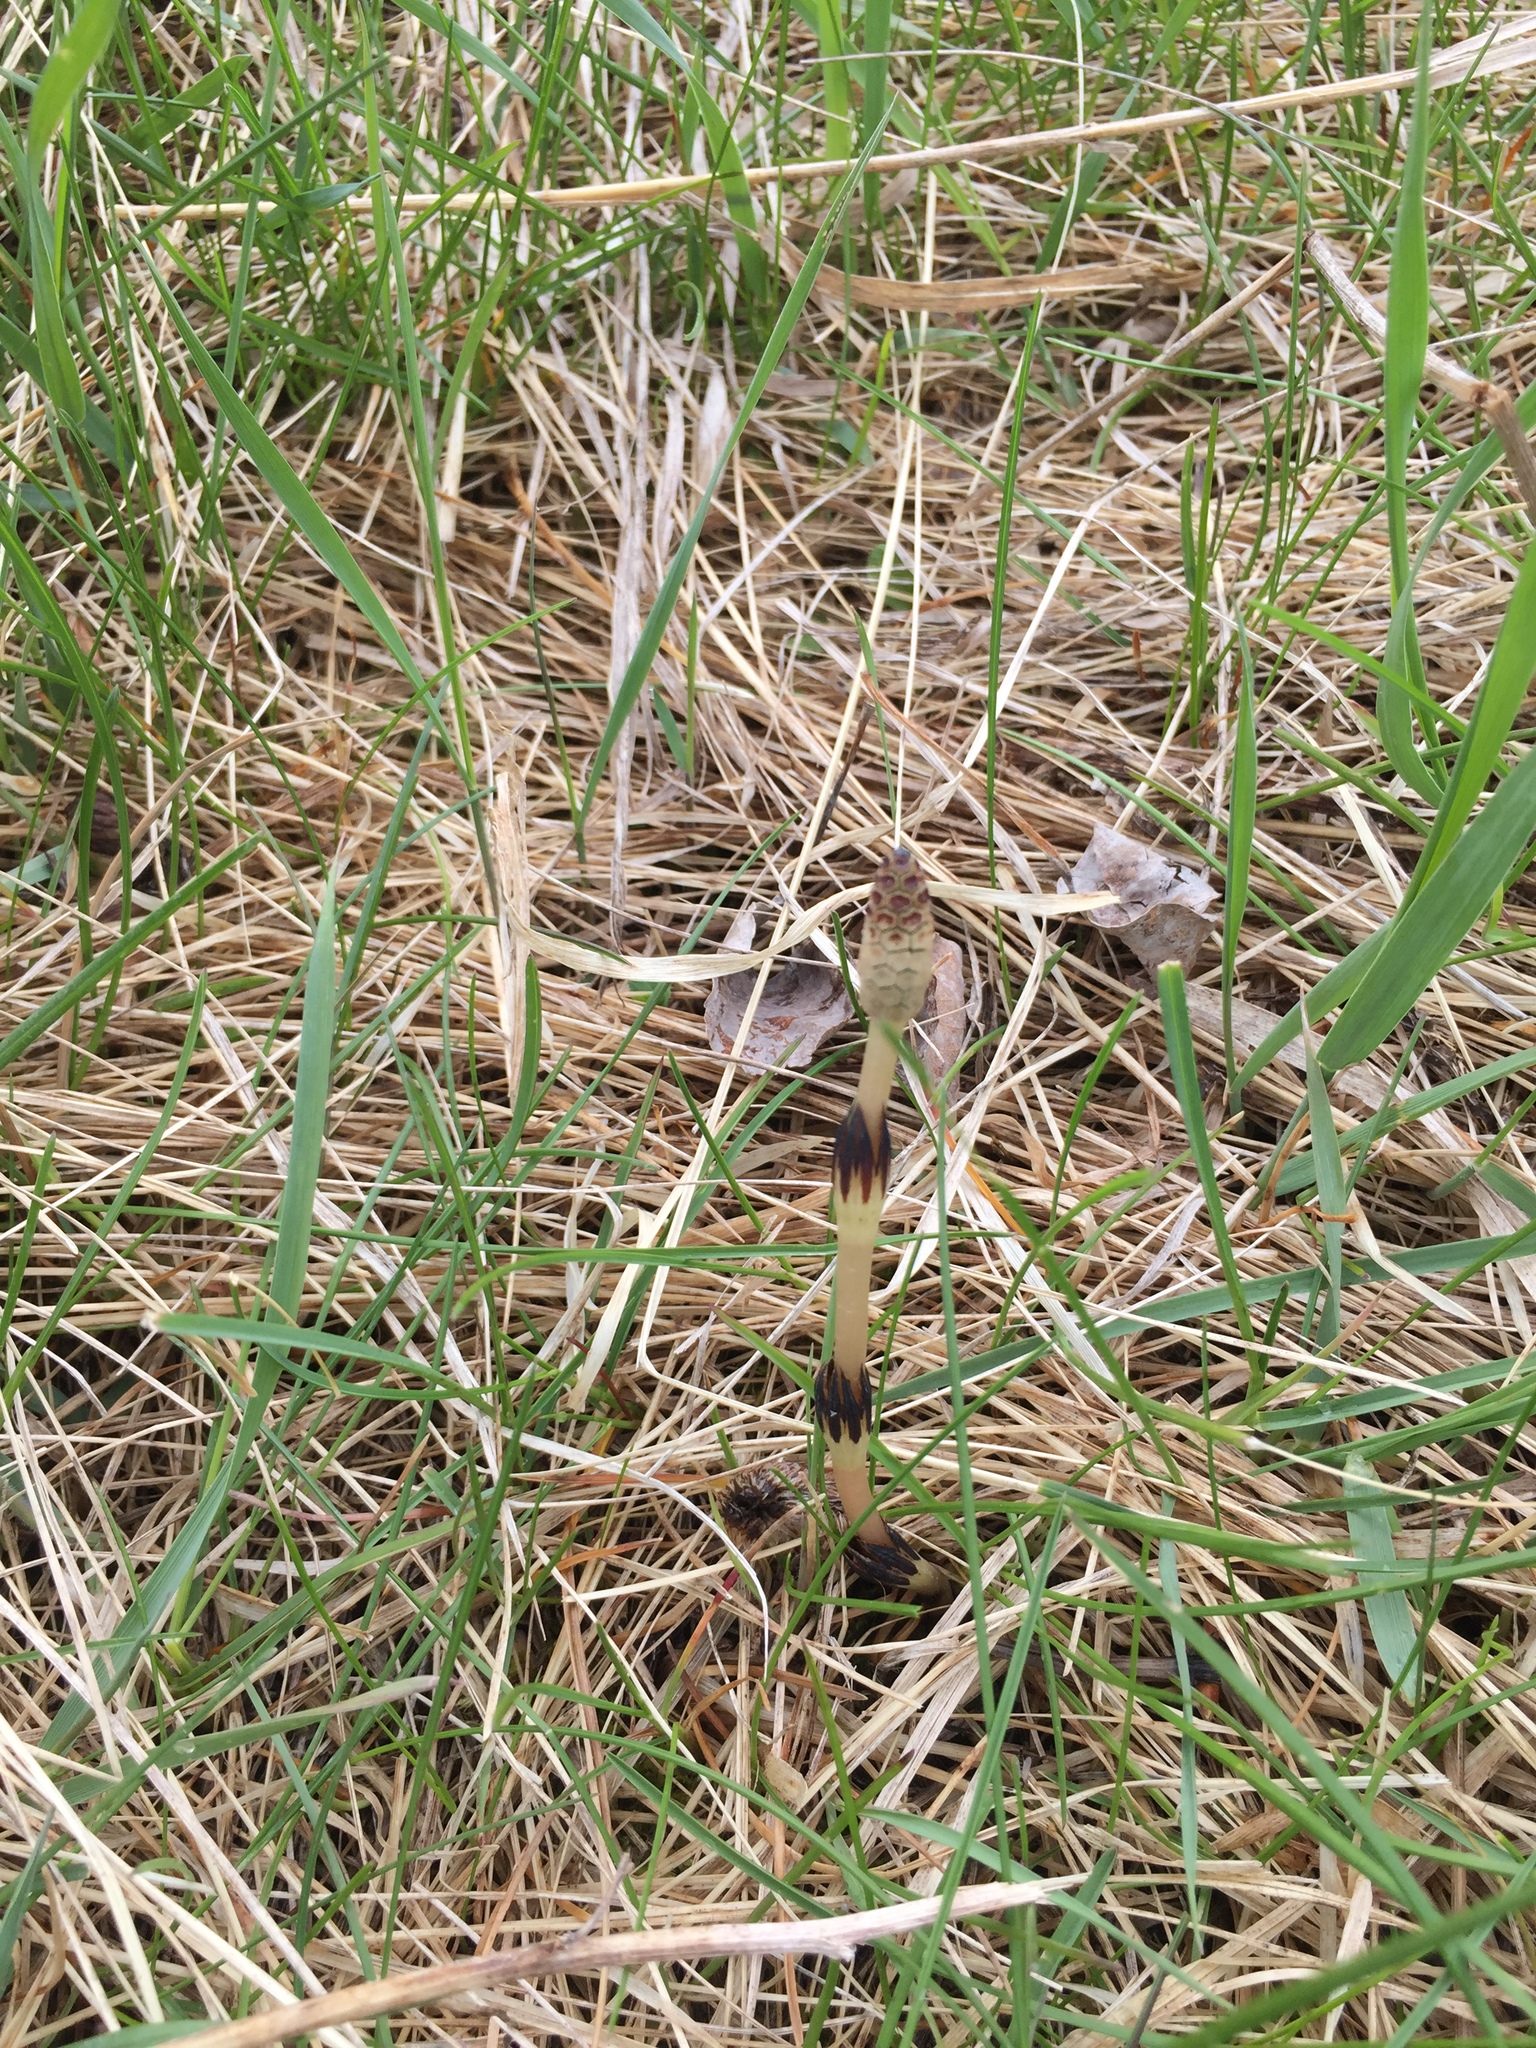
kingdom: Plantae
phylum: Tracheophyta
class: Polypodiopsida
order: Equisetales
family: Equisetaceae
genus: Equisetum
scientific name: Equisetum arvense
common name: Field horsetail
